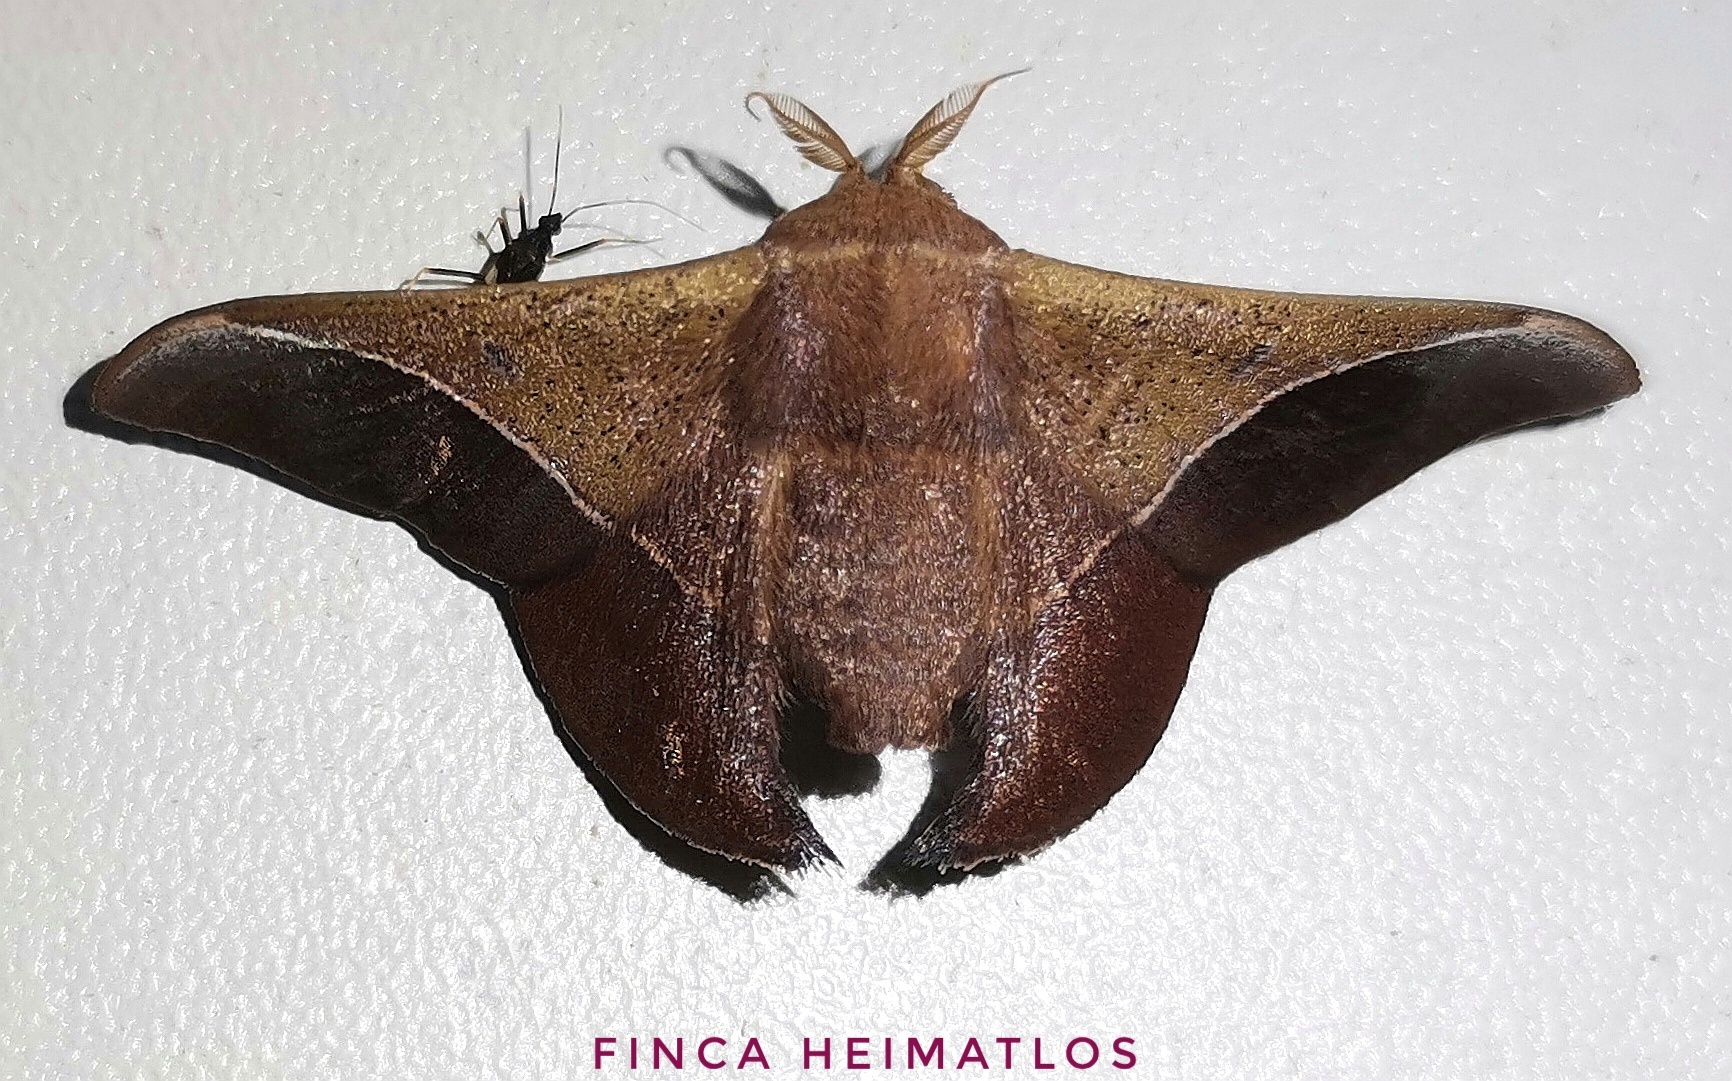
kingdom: Animalia
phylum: Arthropoda
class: Insecta
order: Lepidoptera
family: Mimallonidae
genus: Alheita
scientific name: Alheita caudina
